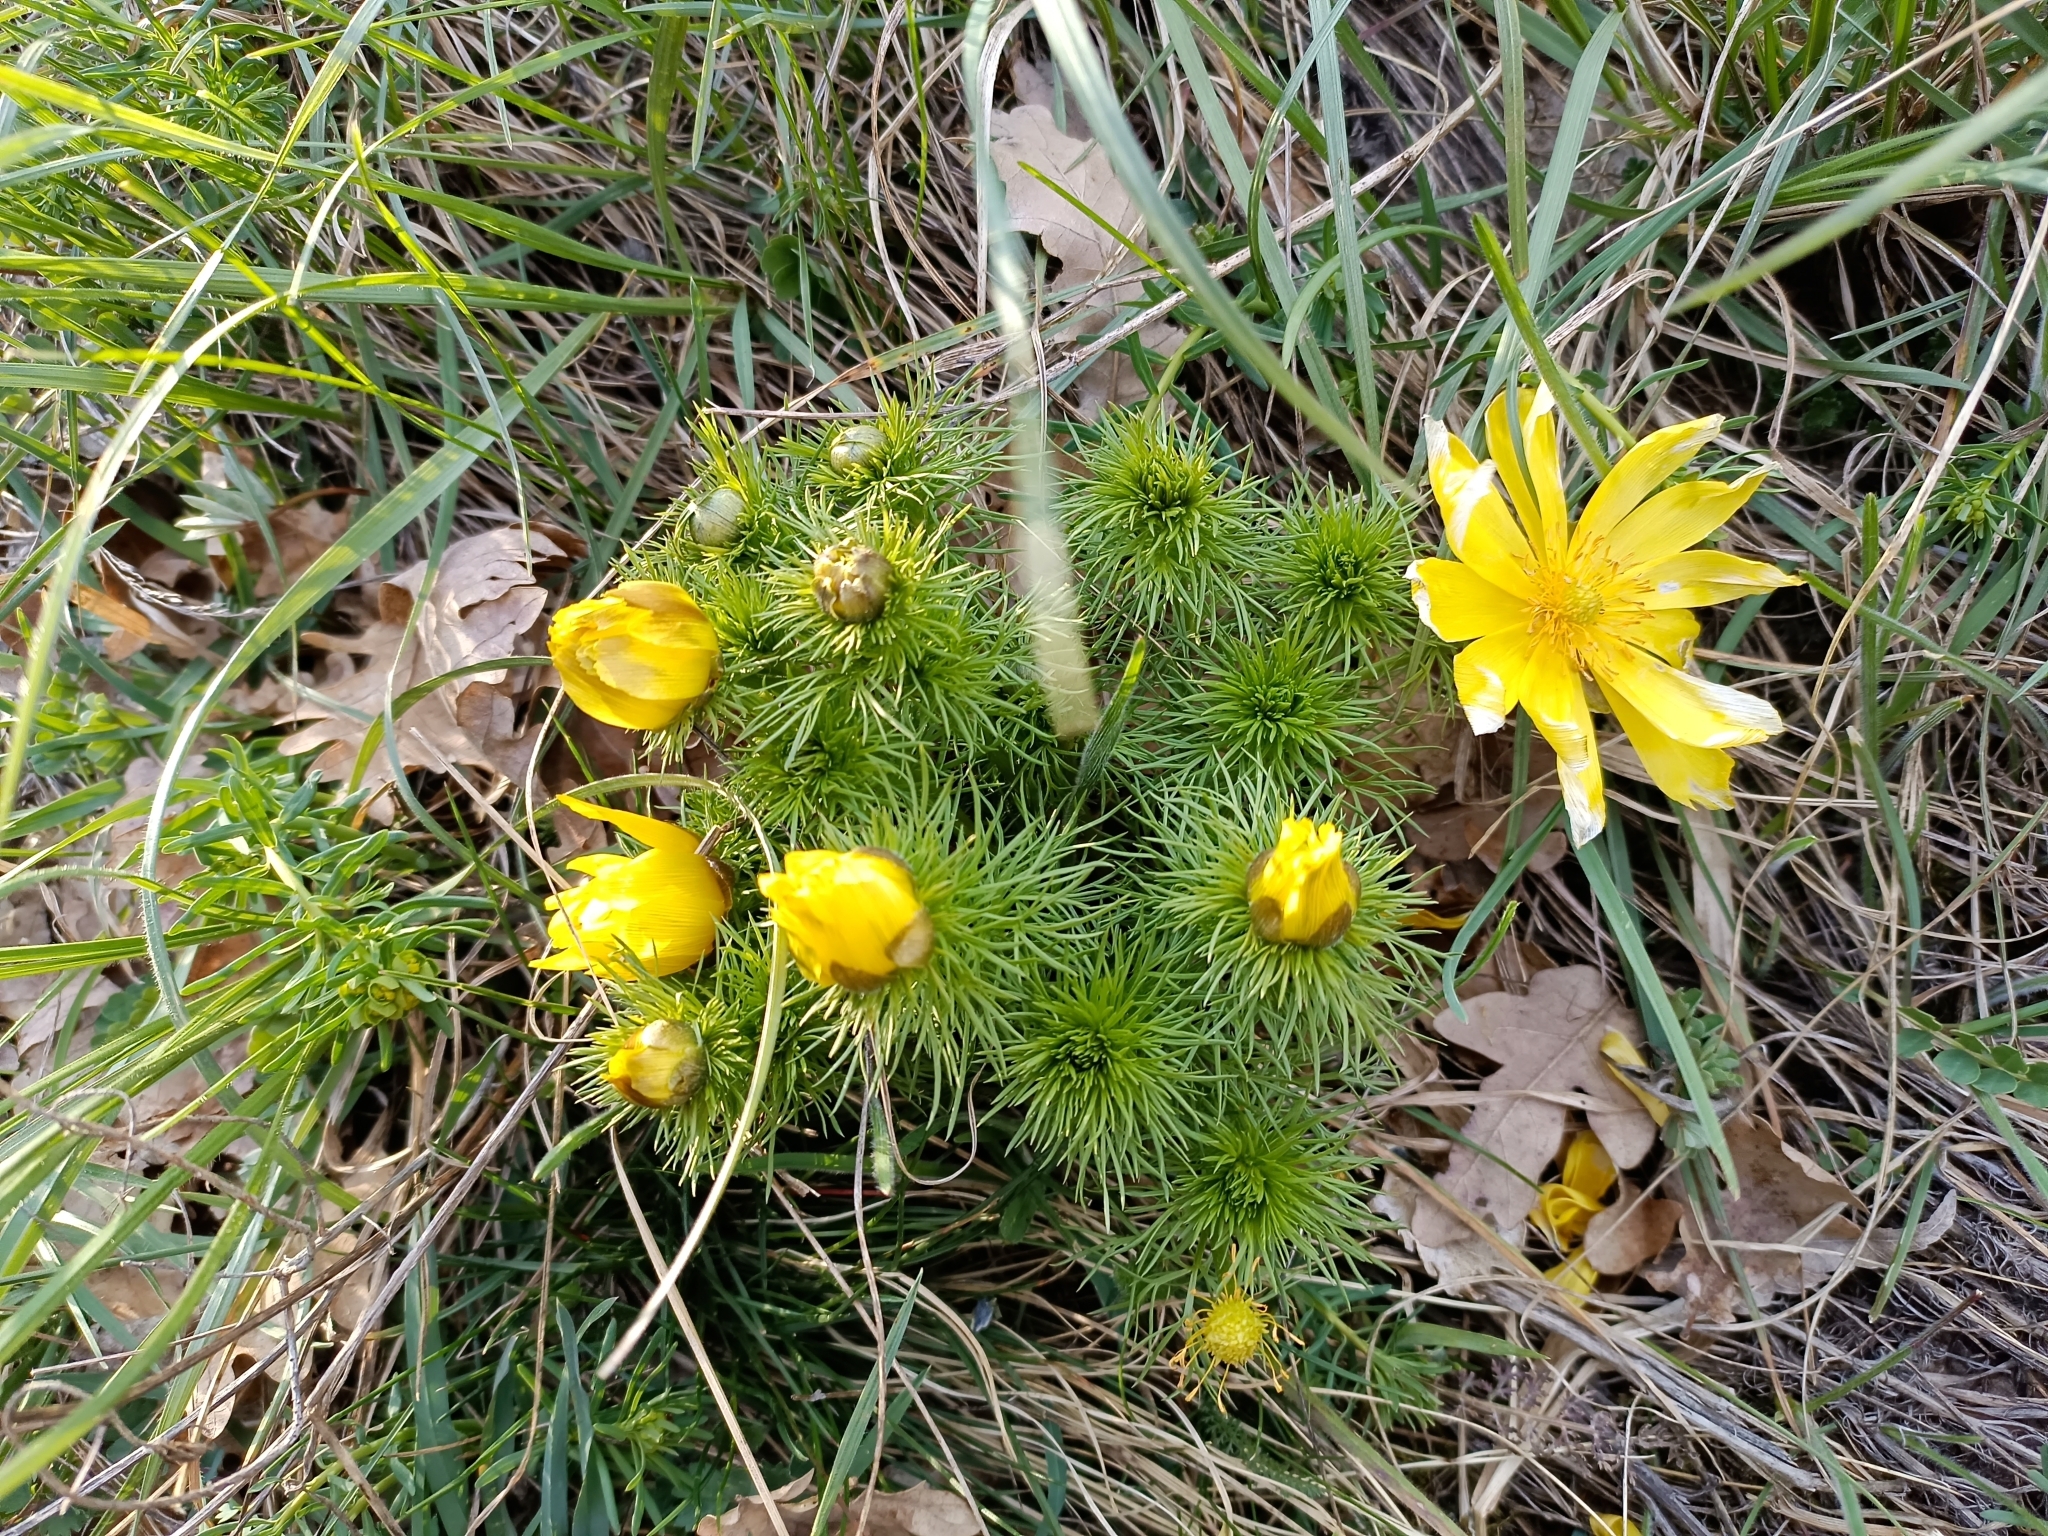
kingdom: Plantae
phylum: Tracheophyta
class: Magnoliopsida
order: Ranunculales
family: Ranunculaceae
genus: Adonis
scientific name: Adonis vernalis
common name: Yellow pheasants-eye
